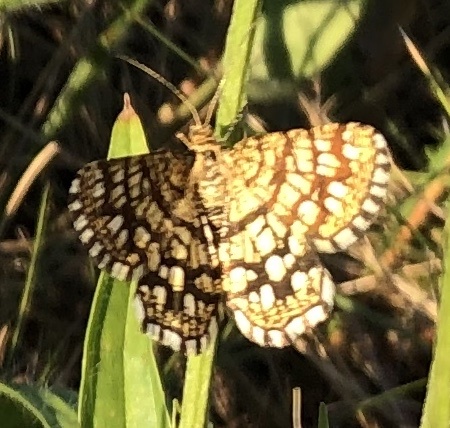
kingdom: Animalia
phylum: Arthropoda
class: Insecta
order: Lepidoptera
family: Geometridae
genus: Chiasmia
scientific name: Chiasmia clathrata
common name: Latticed heath
